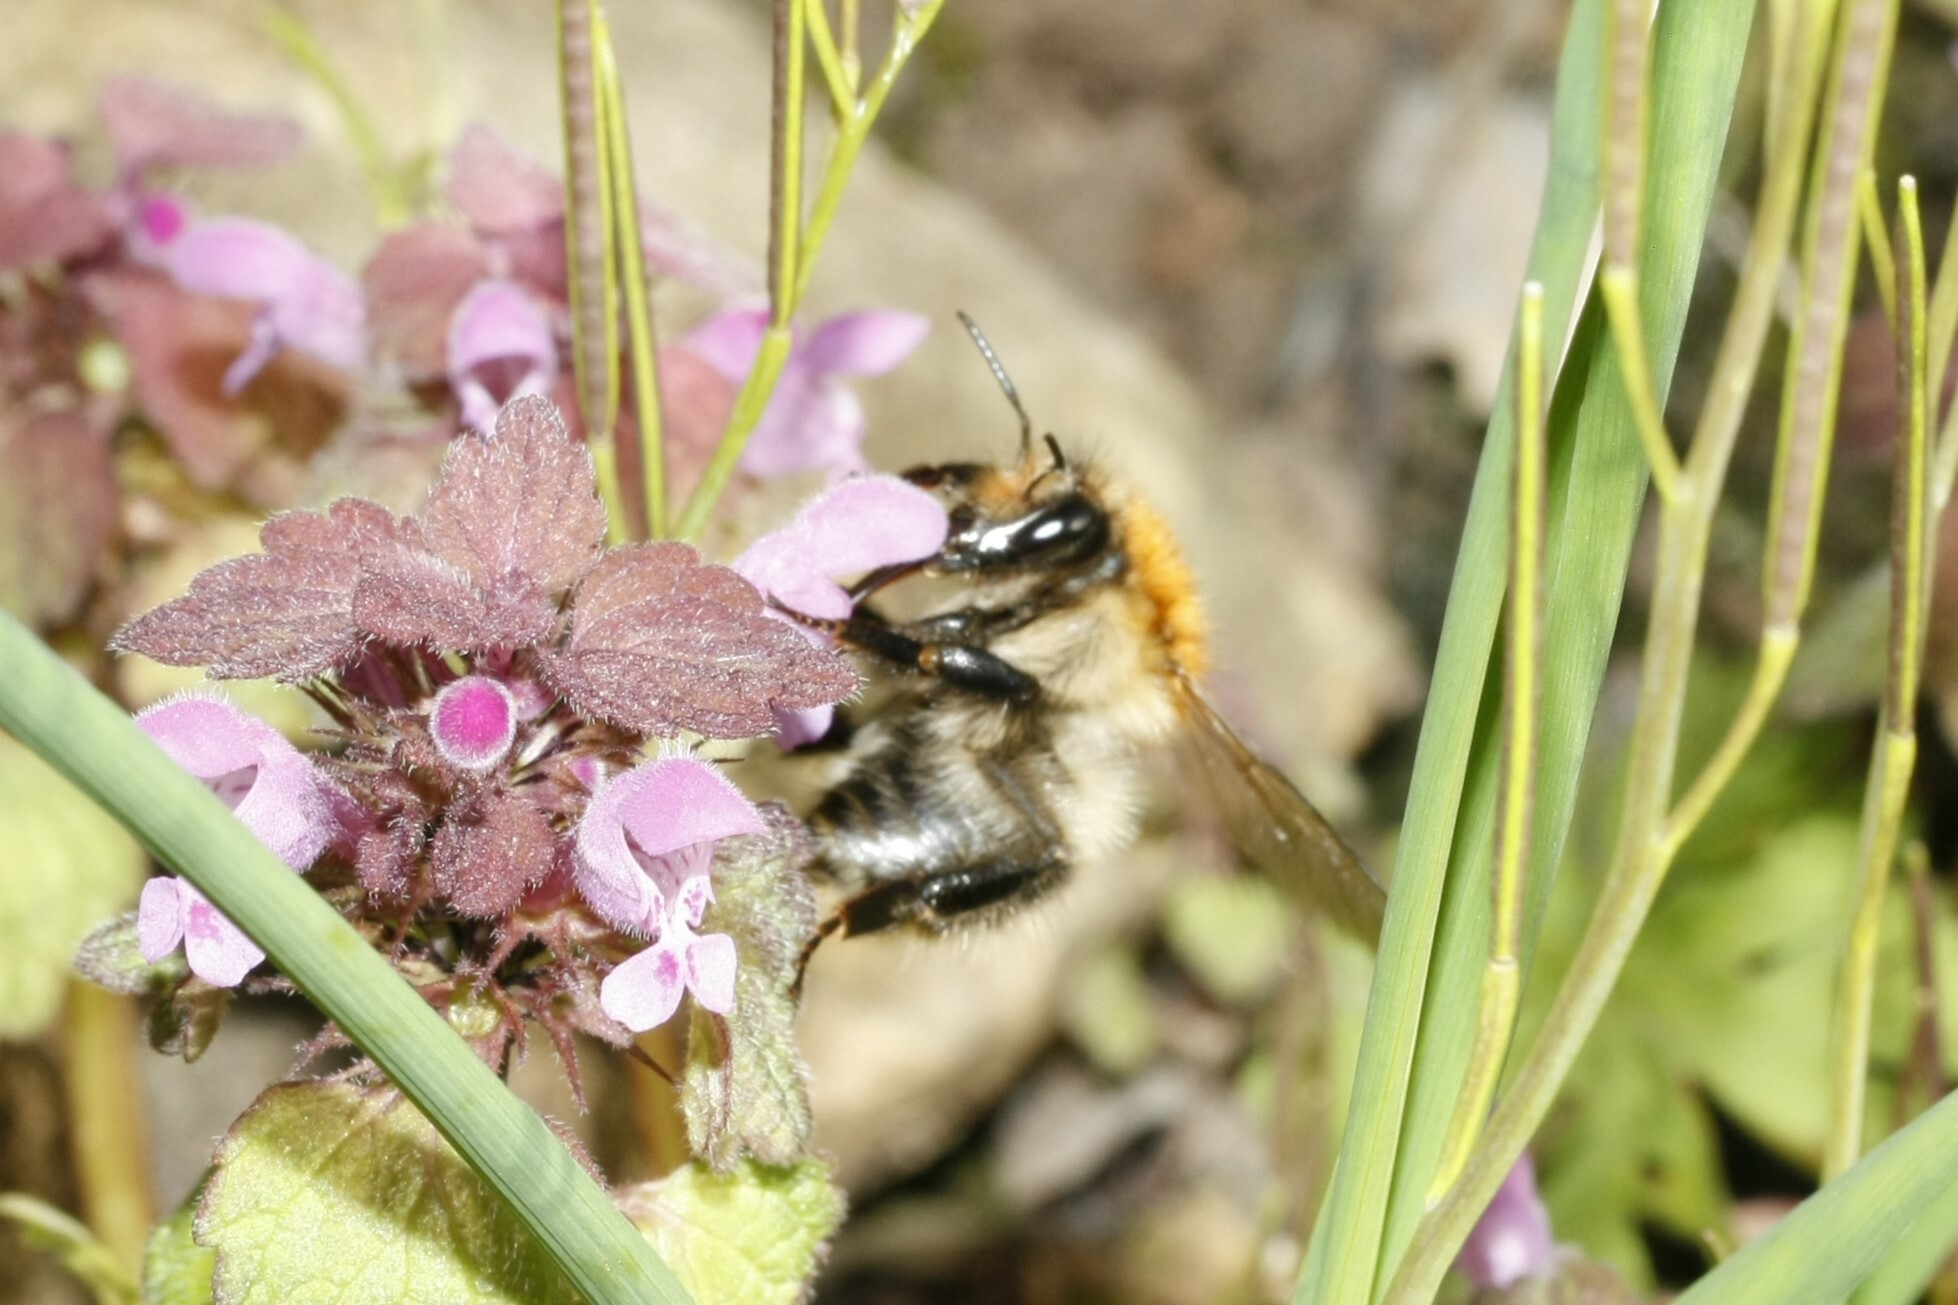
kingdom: Animalia
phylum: Arthropoda
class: Insecta
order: Hymenoptera
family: Apidae
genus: Bombus
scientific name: Bombus pascuorum
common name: Common carder bee
